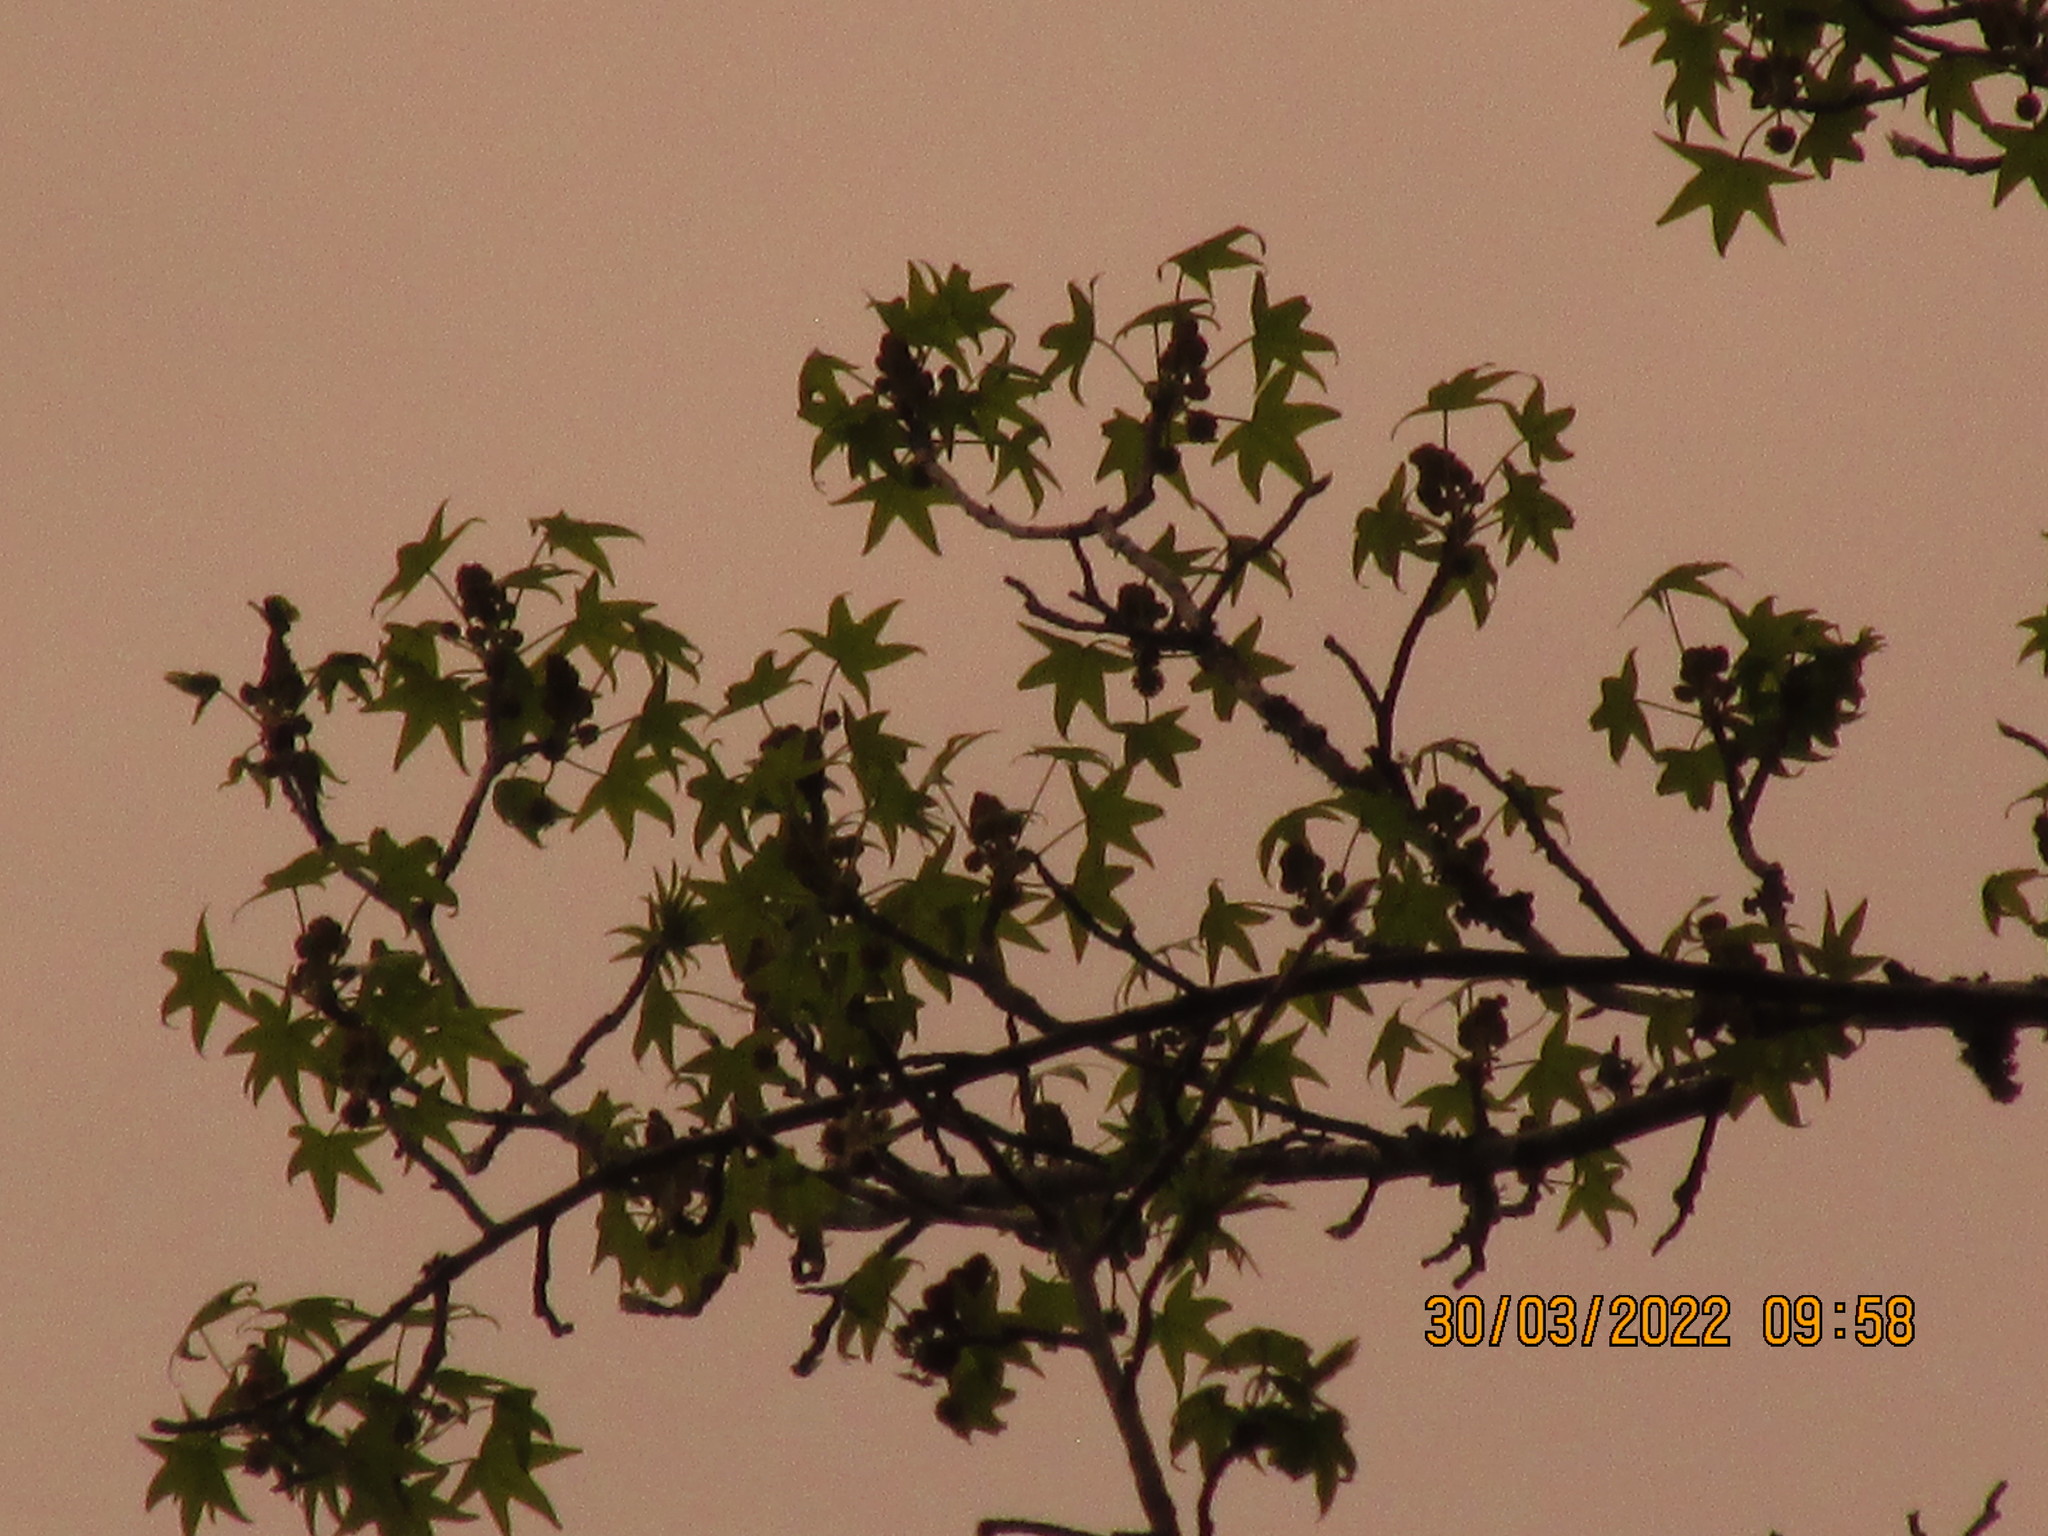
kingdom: Plantae
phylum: Tracheophyta
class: Magnoliopsida
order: Saxifragales
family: Altingiaceae
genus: Liquidambar
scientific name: Liquidambar styraciflua
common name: Sweet gum
